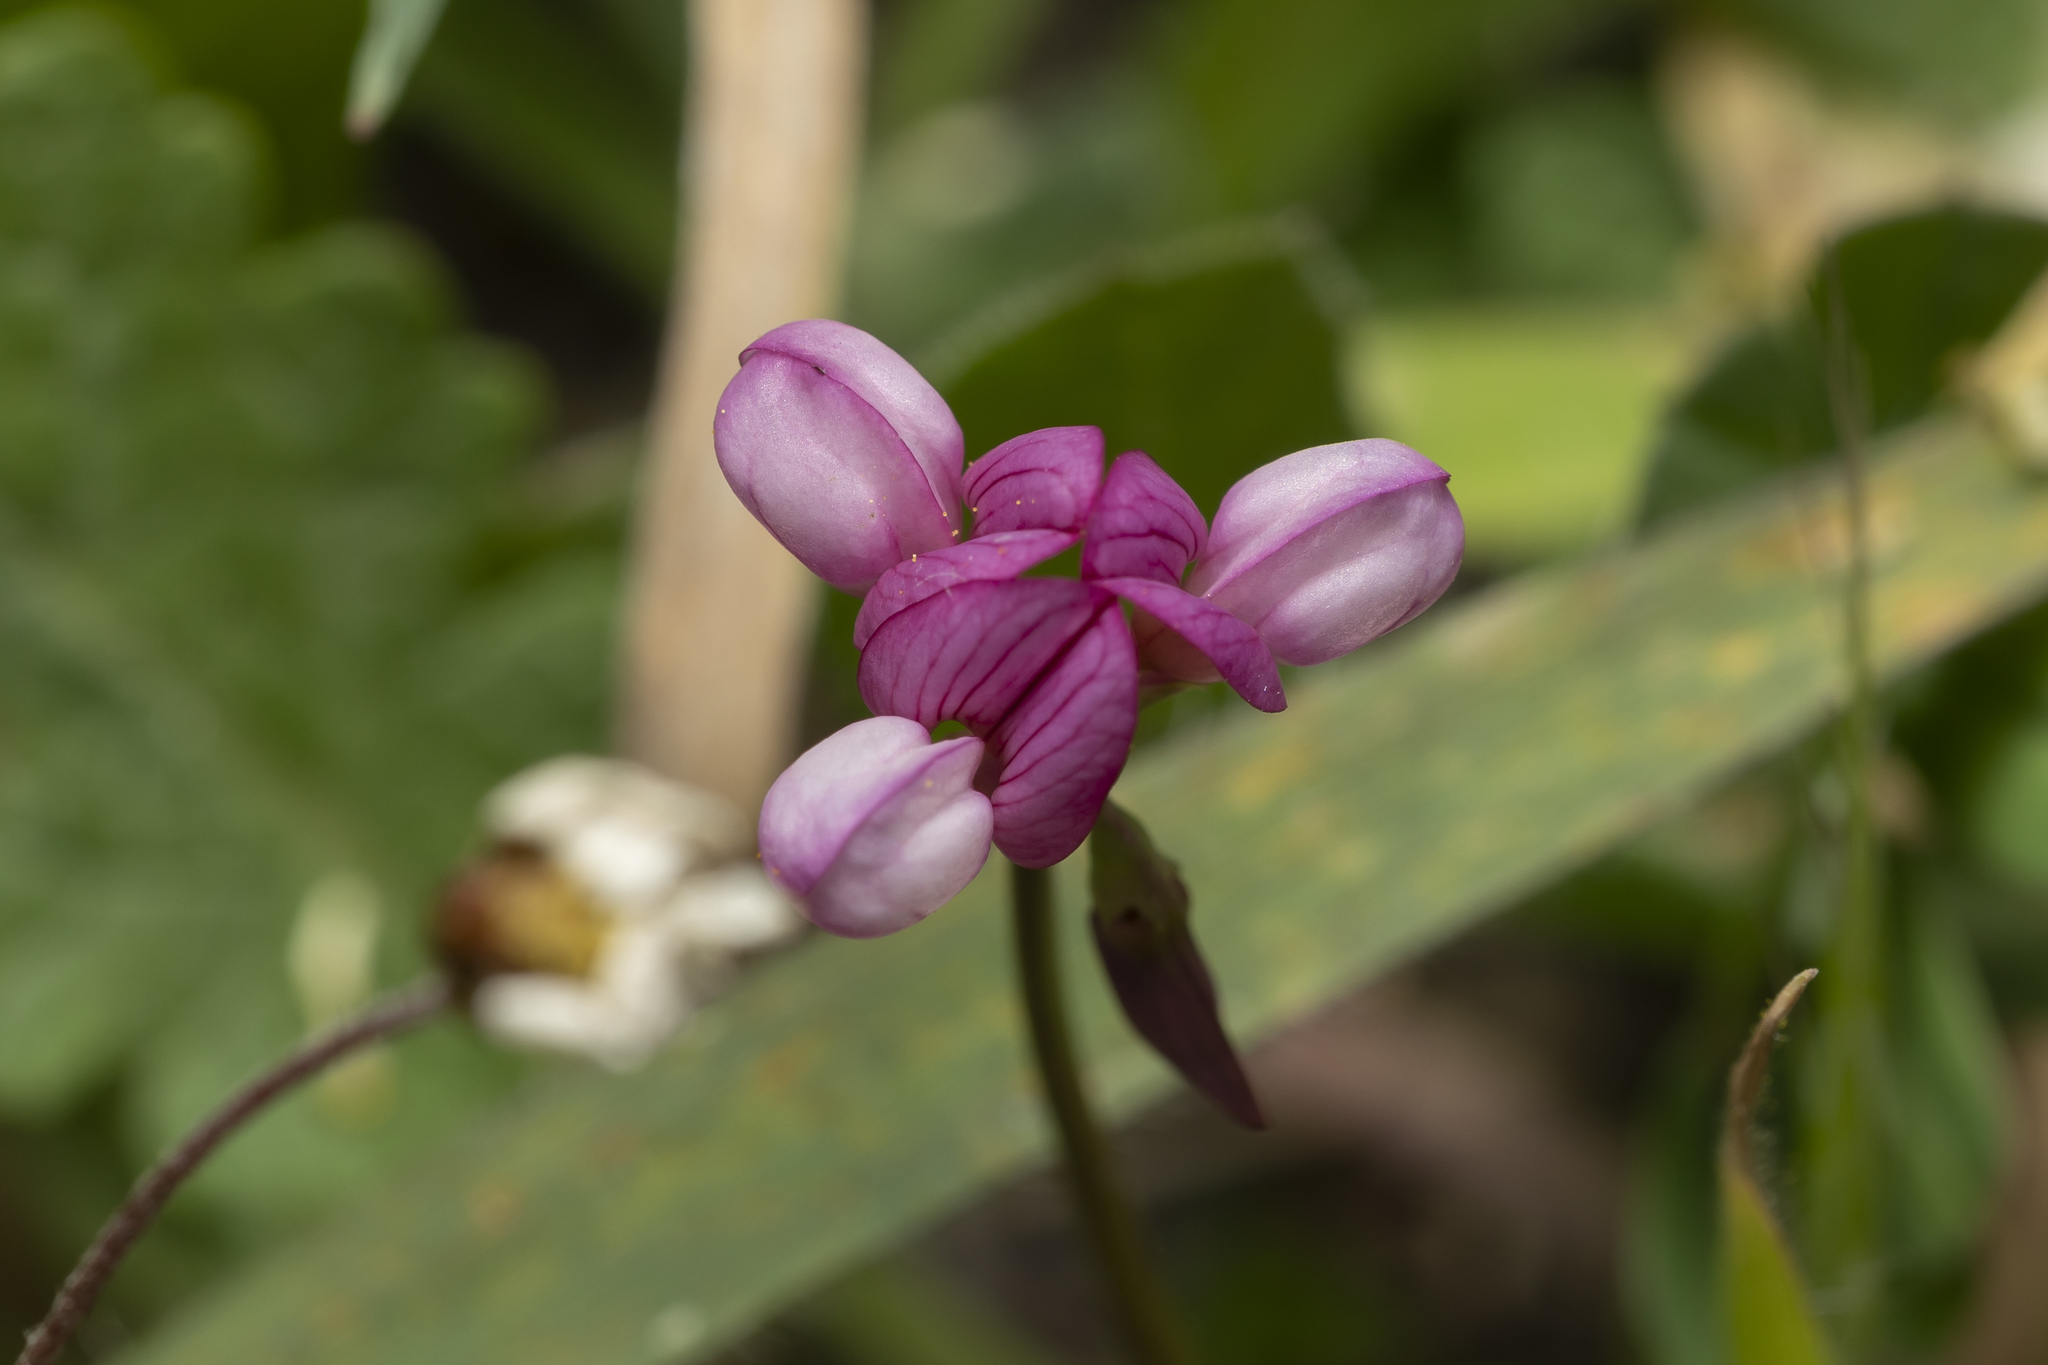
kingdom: Plantae
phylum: Tracheophyta
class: Magnoliopsida
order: Fabales
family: Fabaceae
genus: Coronilla
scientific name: Coronilla cretica
